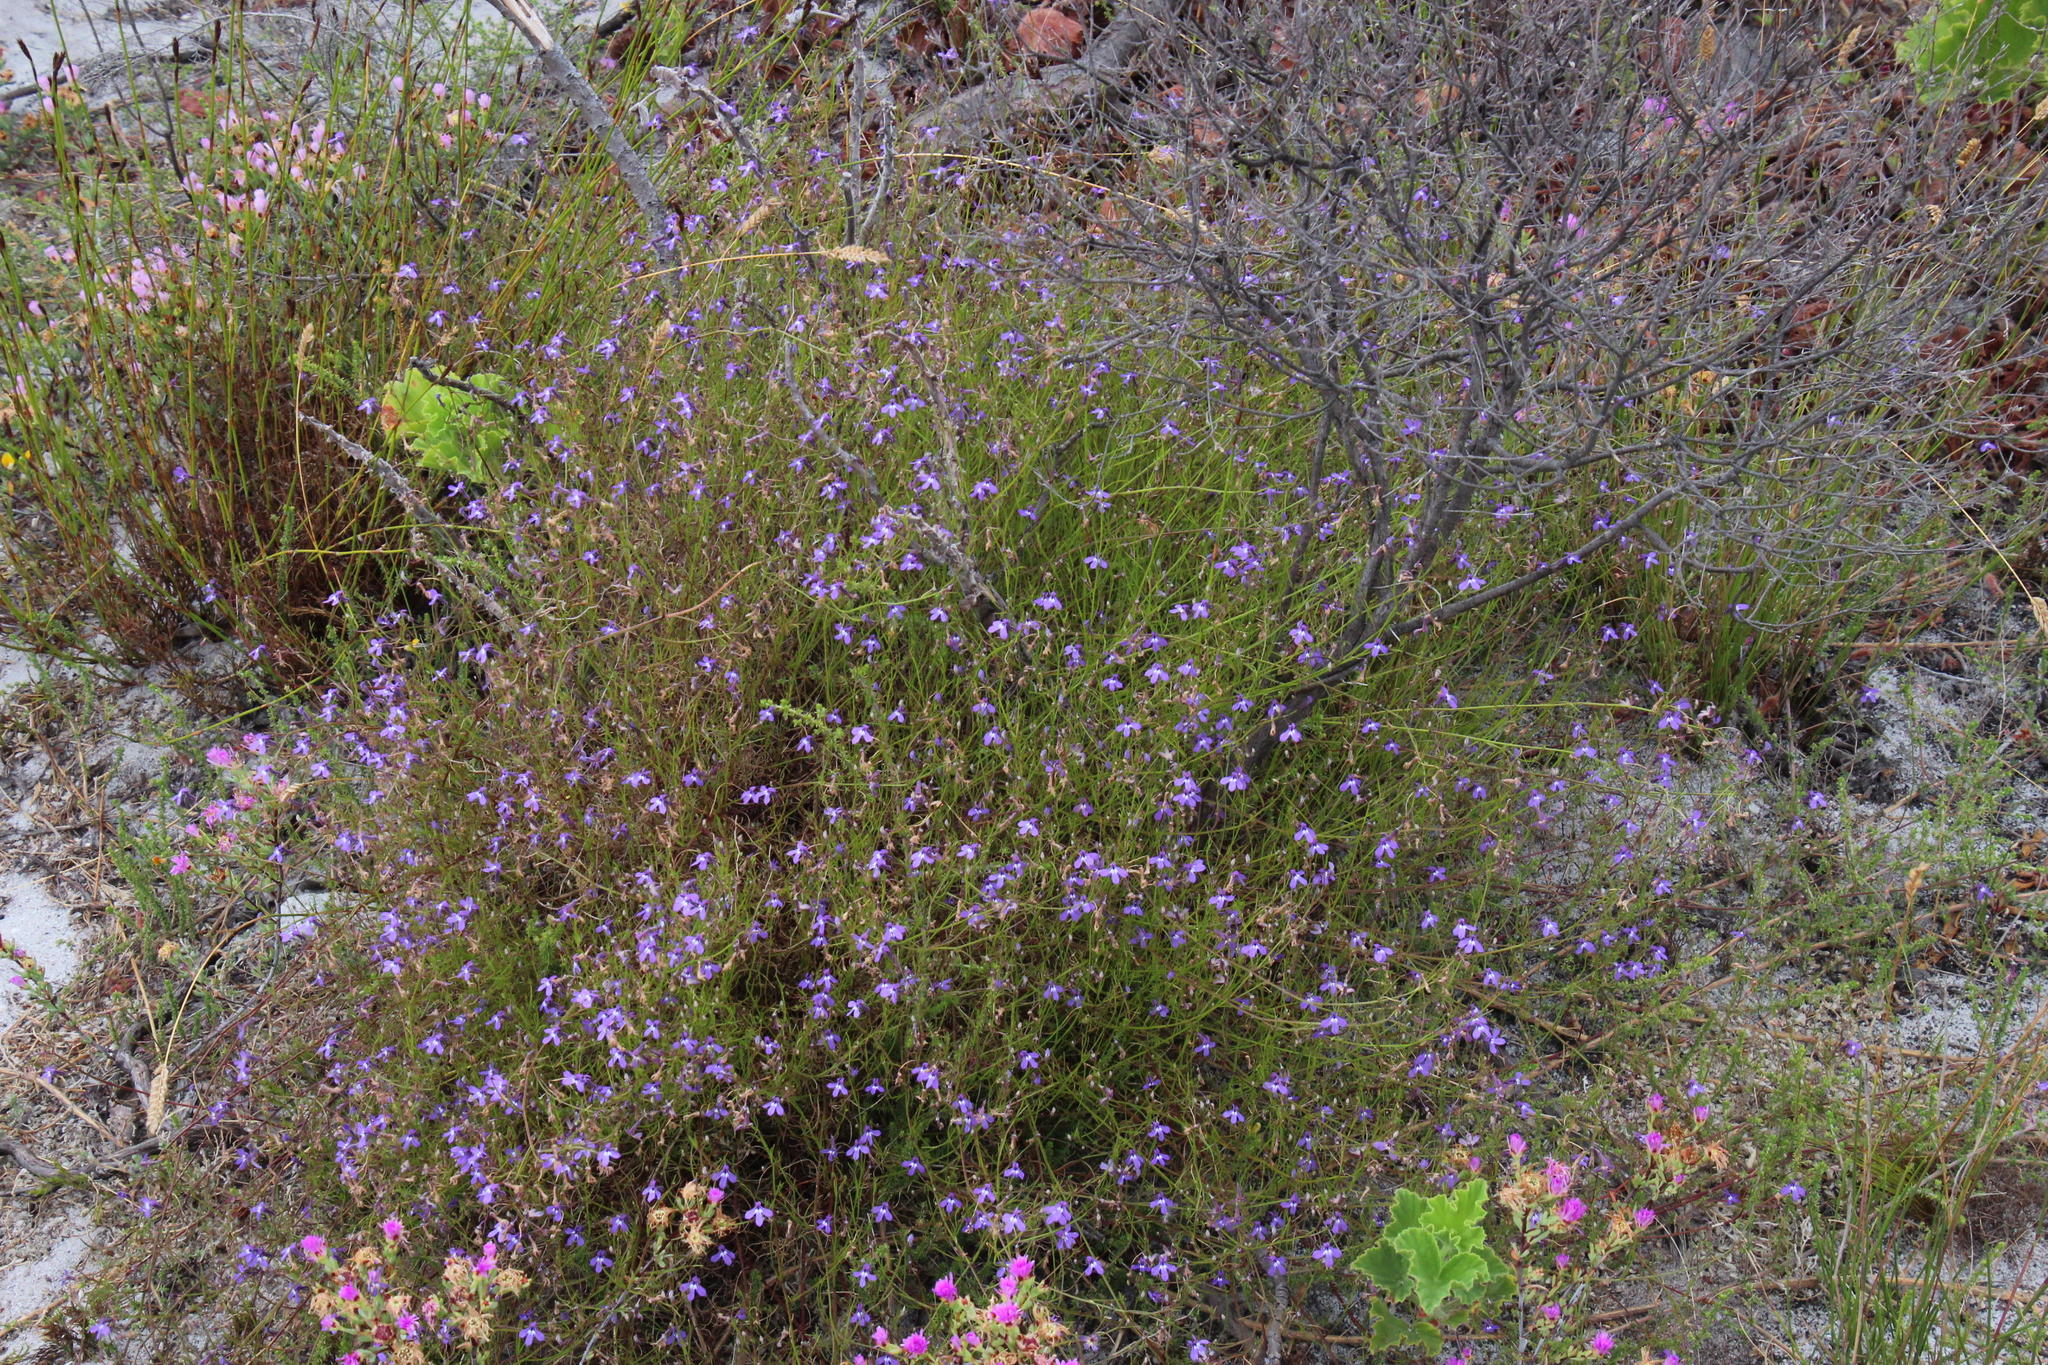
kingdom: Plantae
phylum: Tracheophyta
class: Magnoliopsida
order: Asterales
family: Campanulaceae
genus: Lobelia
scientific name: Lobelia setacea
